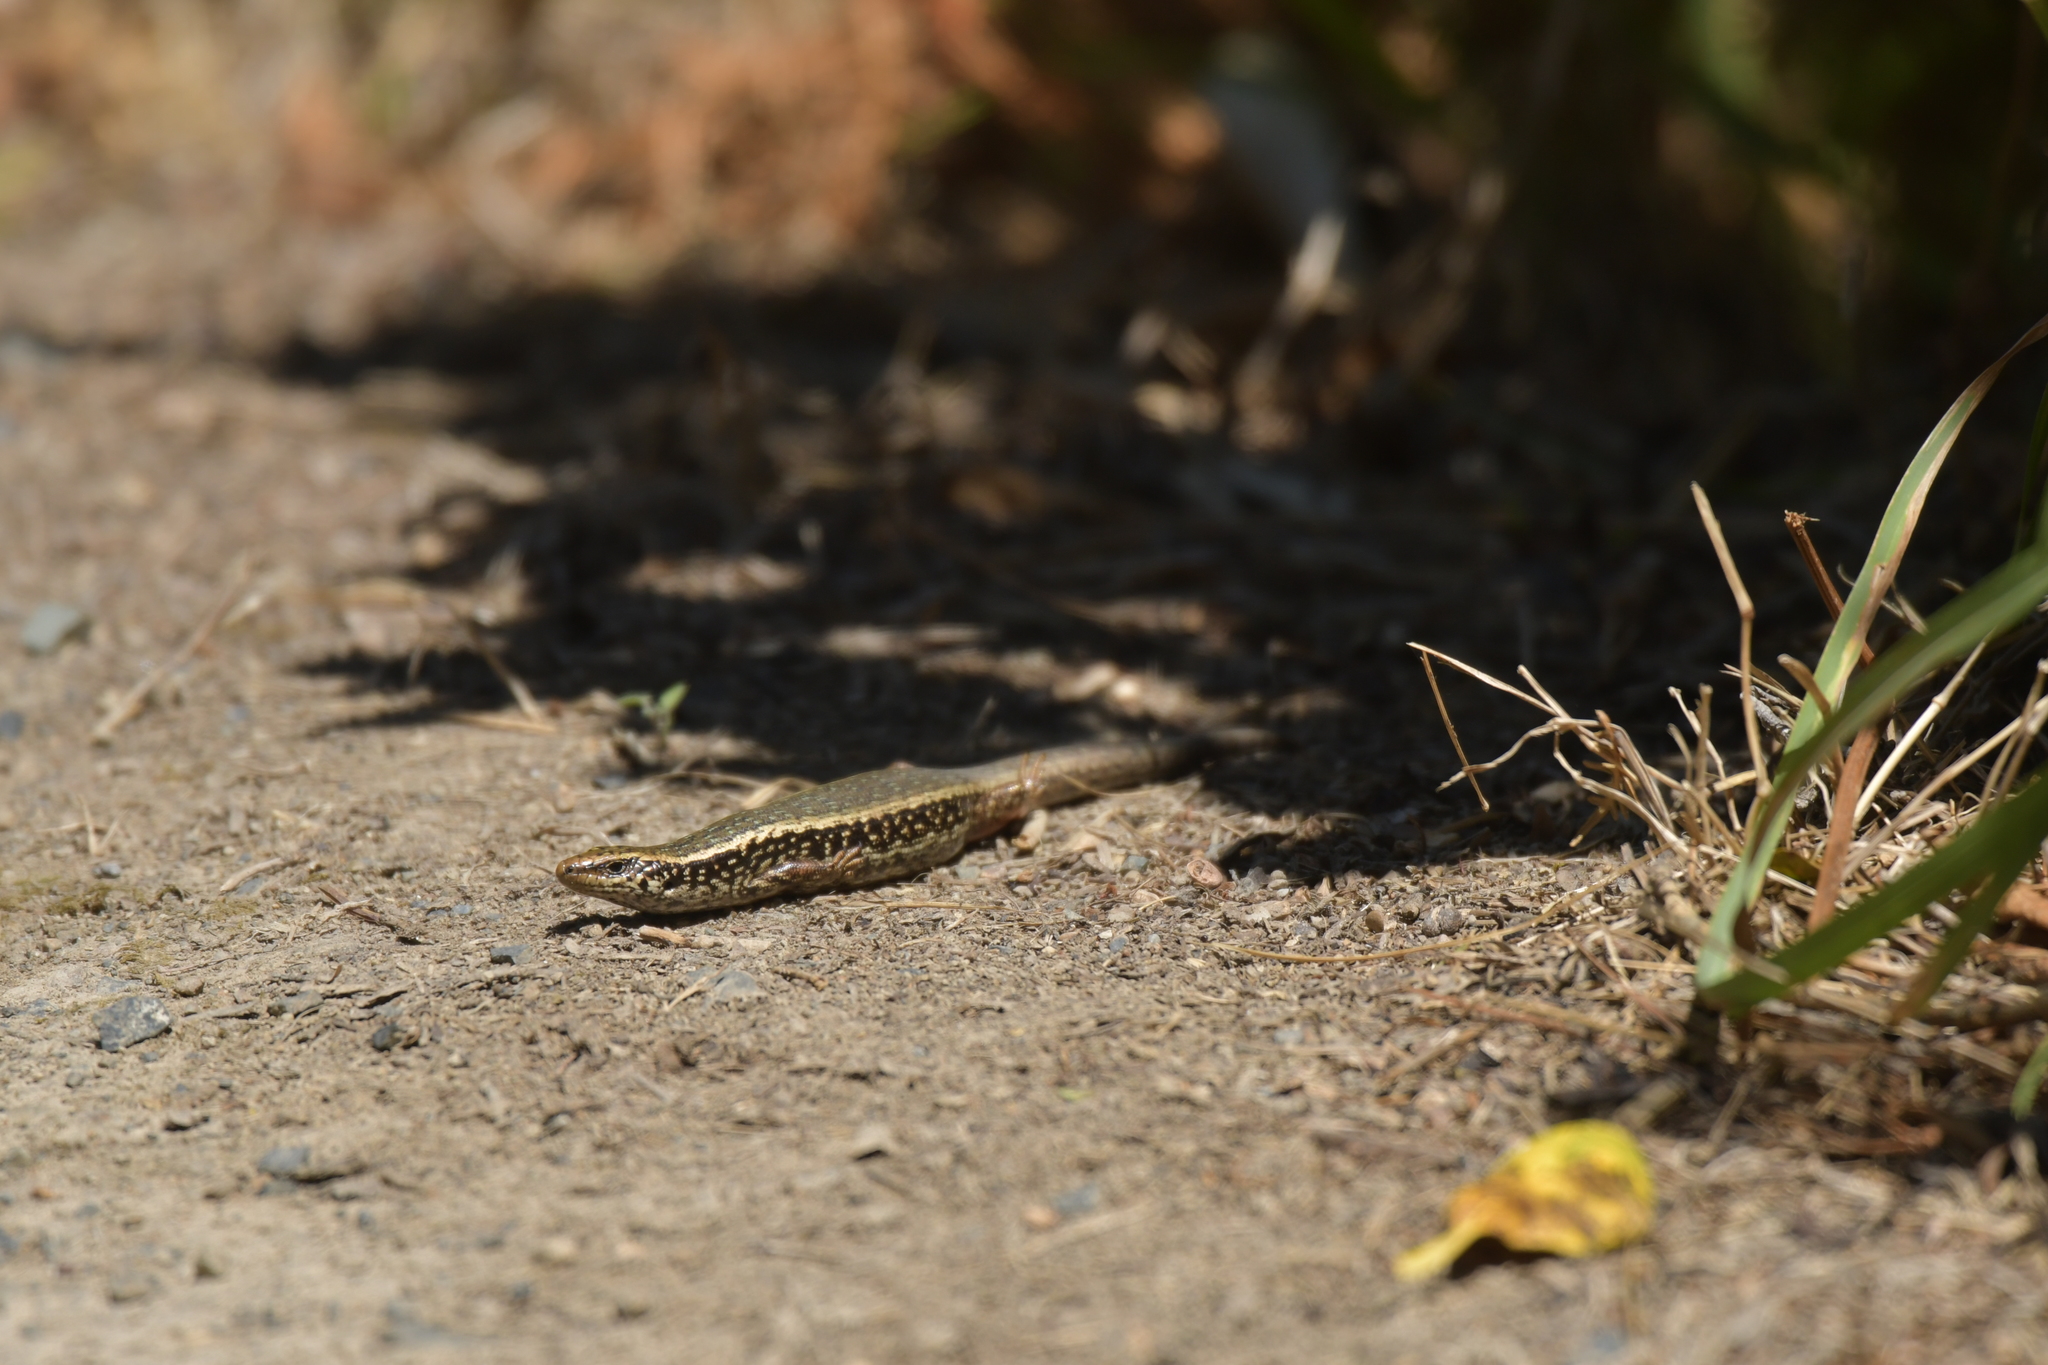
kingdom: Animalia
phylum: Chordata
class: Squamata
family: Scincidae
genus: Oligosoma
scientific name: Oligosoma kokowai
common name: Northern spotted skink
